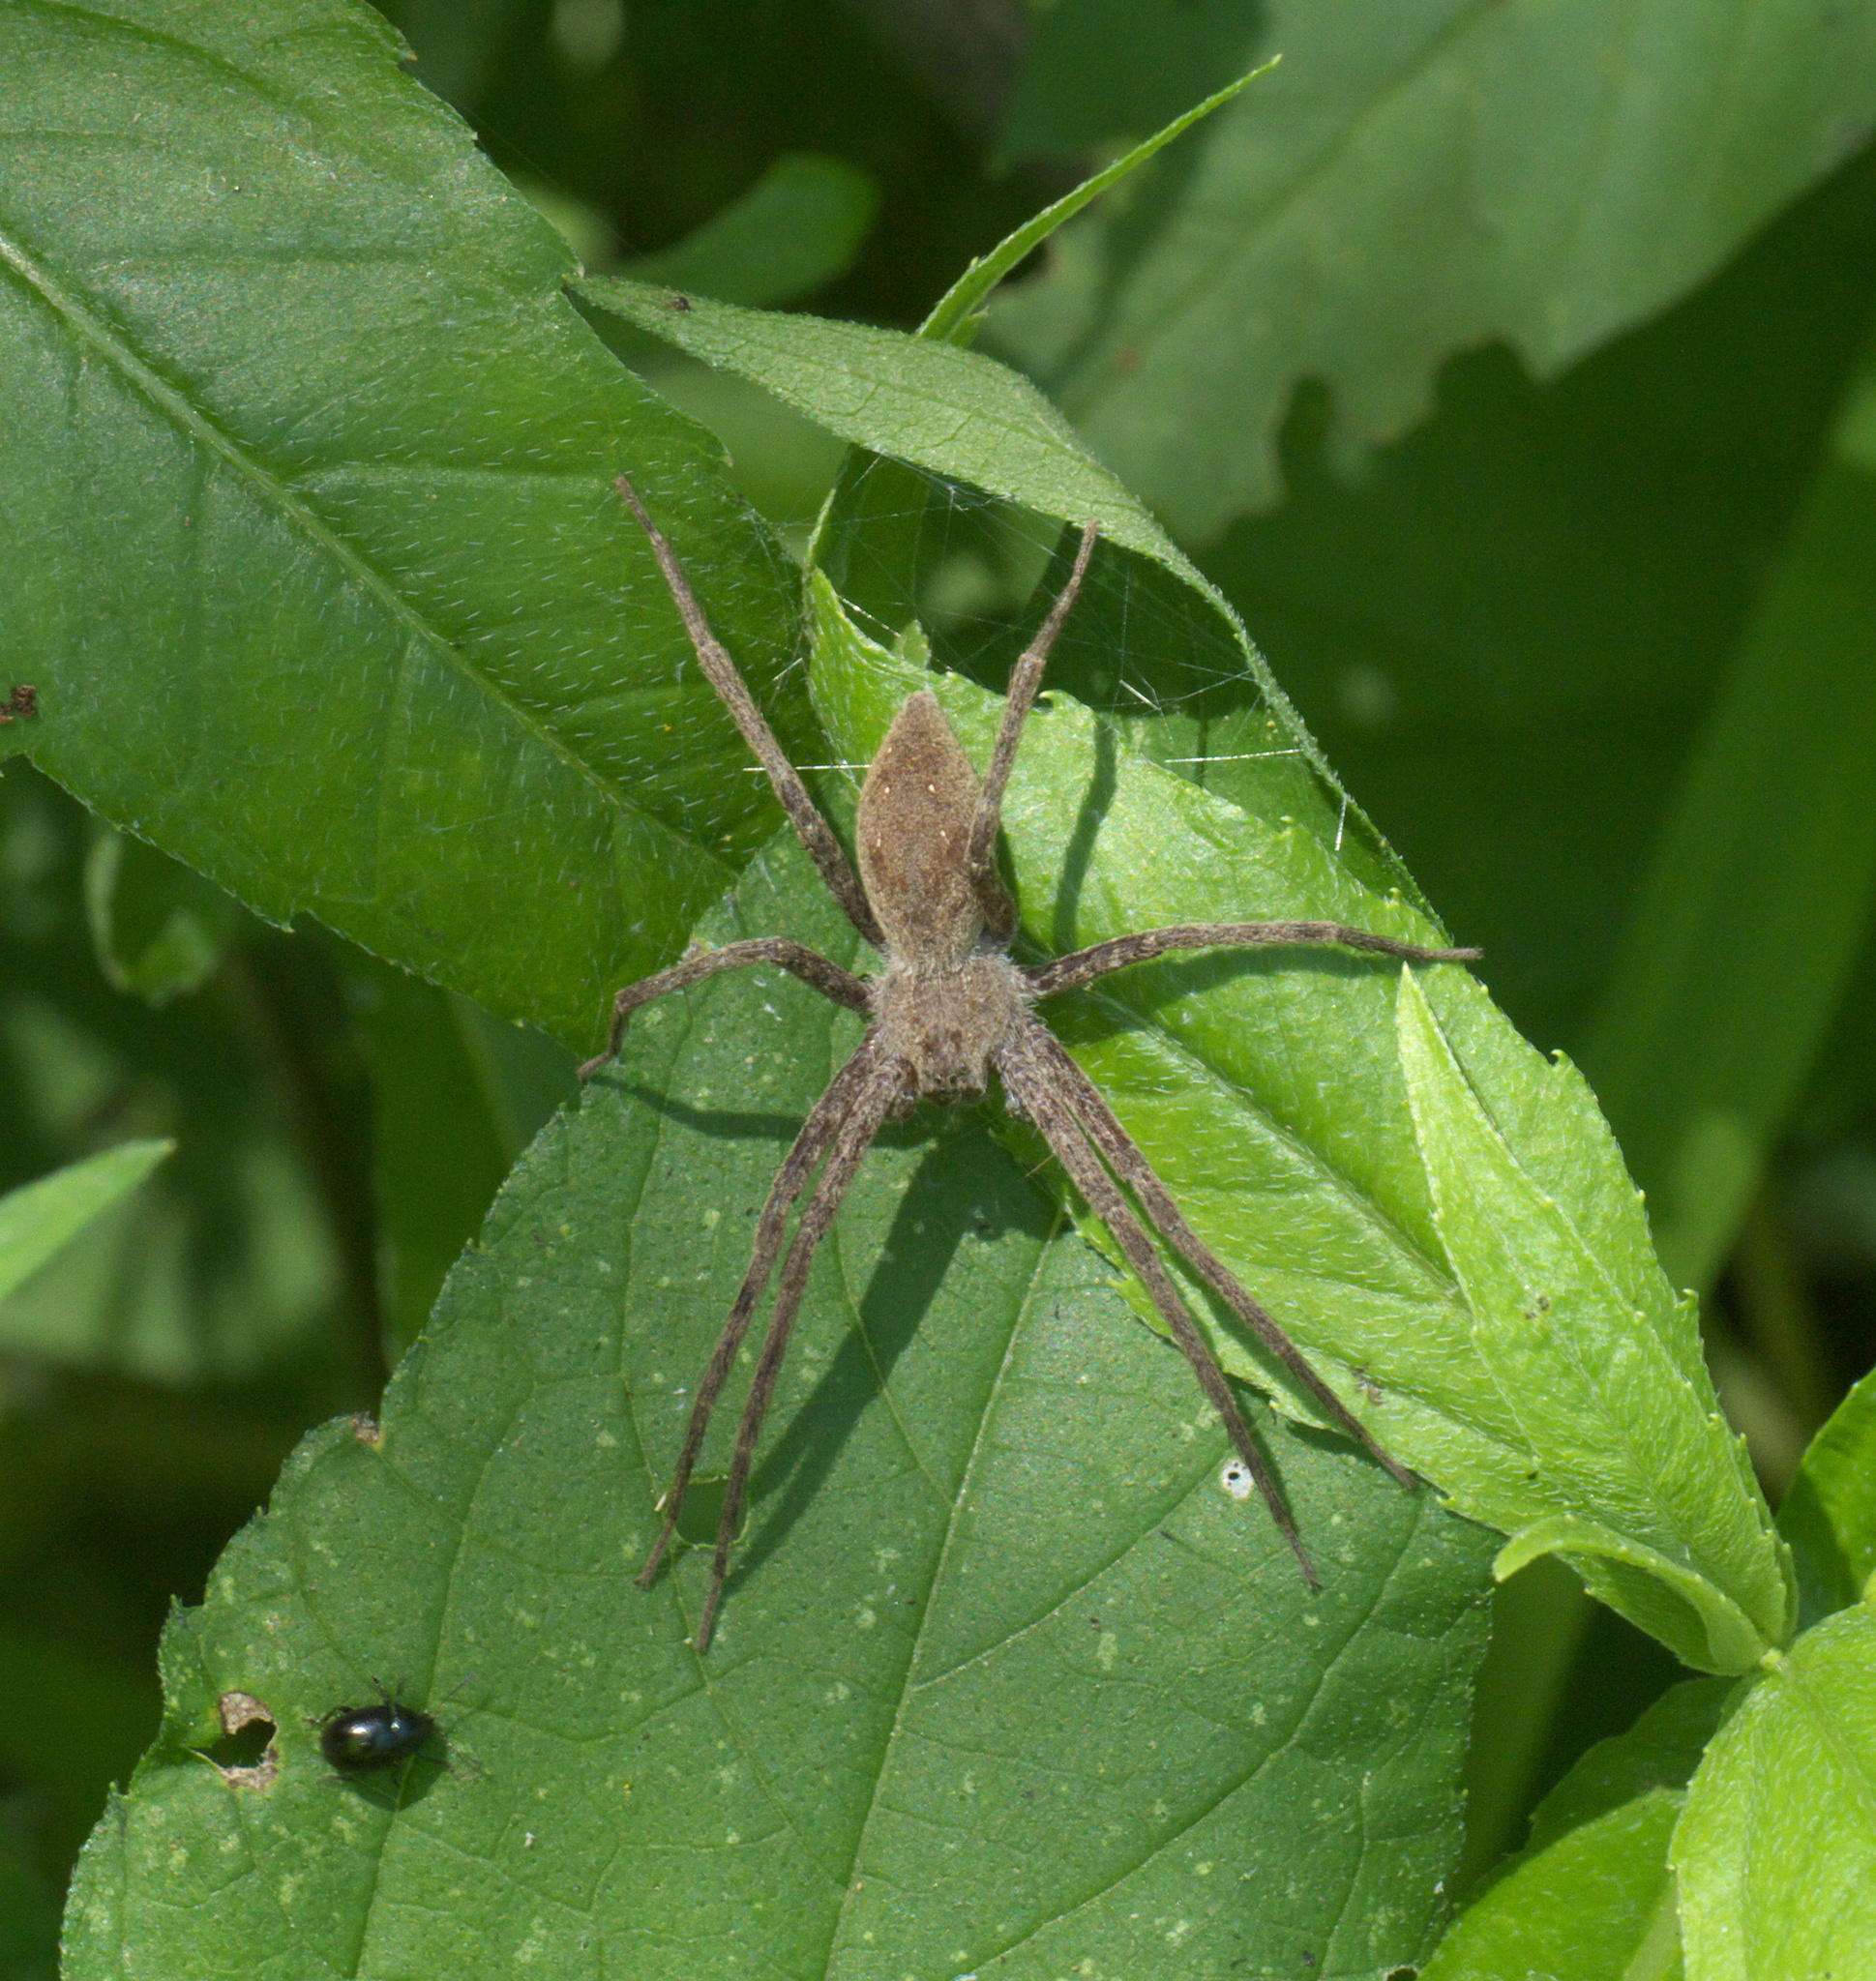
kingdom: Animalia
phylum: Arthropoda
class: Arachnida
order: Araneae
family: Pisauridae
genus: Pisaurina
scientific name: Pisaurina mira
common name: American nursery web spider
